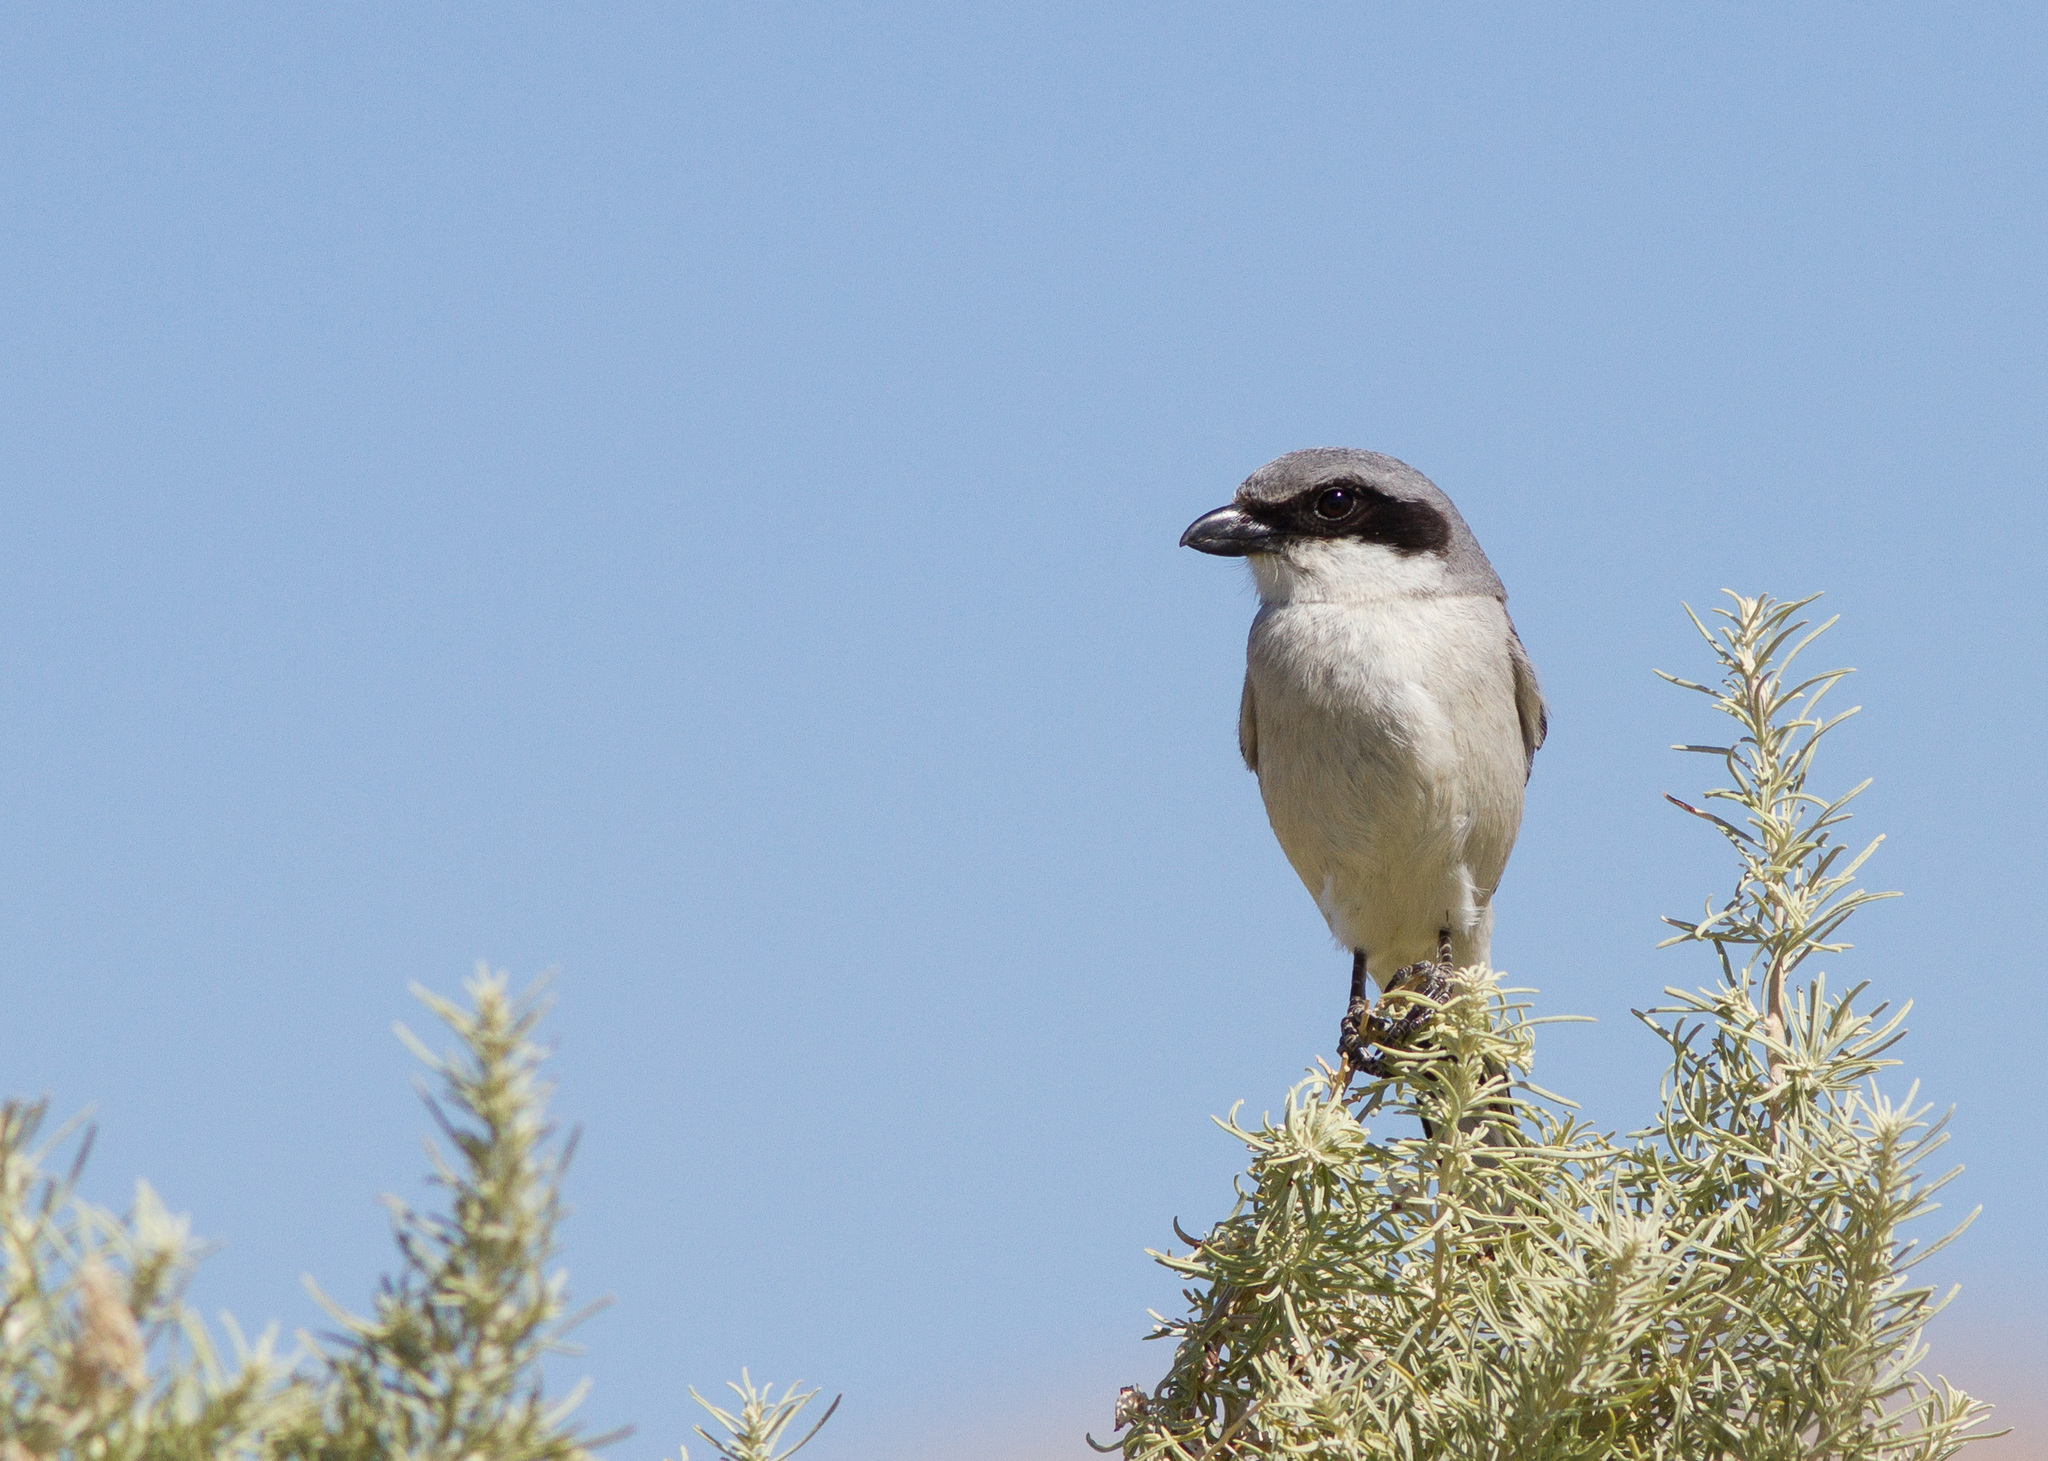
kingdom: Animalia
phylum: Chordata
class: Aves
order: Passeriformes
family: Laniidae
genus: Lanius
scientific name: Lanius ludovicianus
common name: Loggerhead shrike
